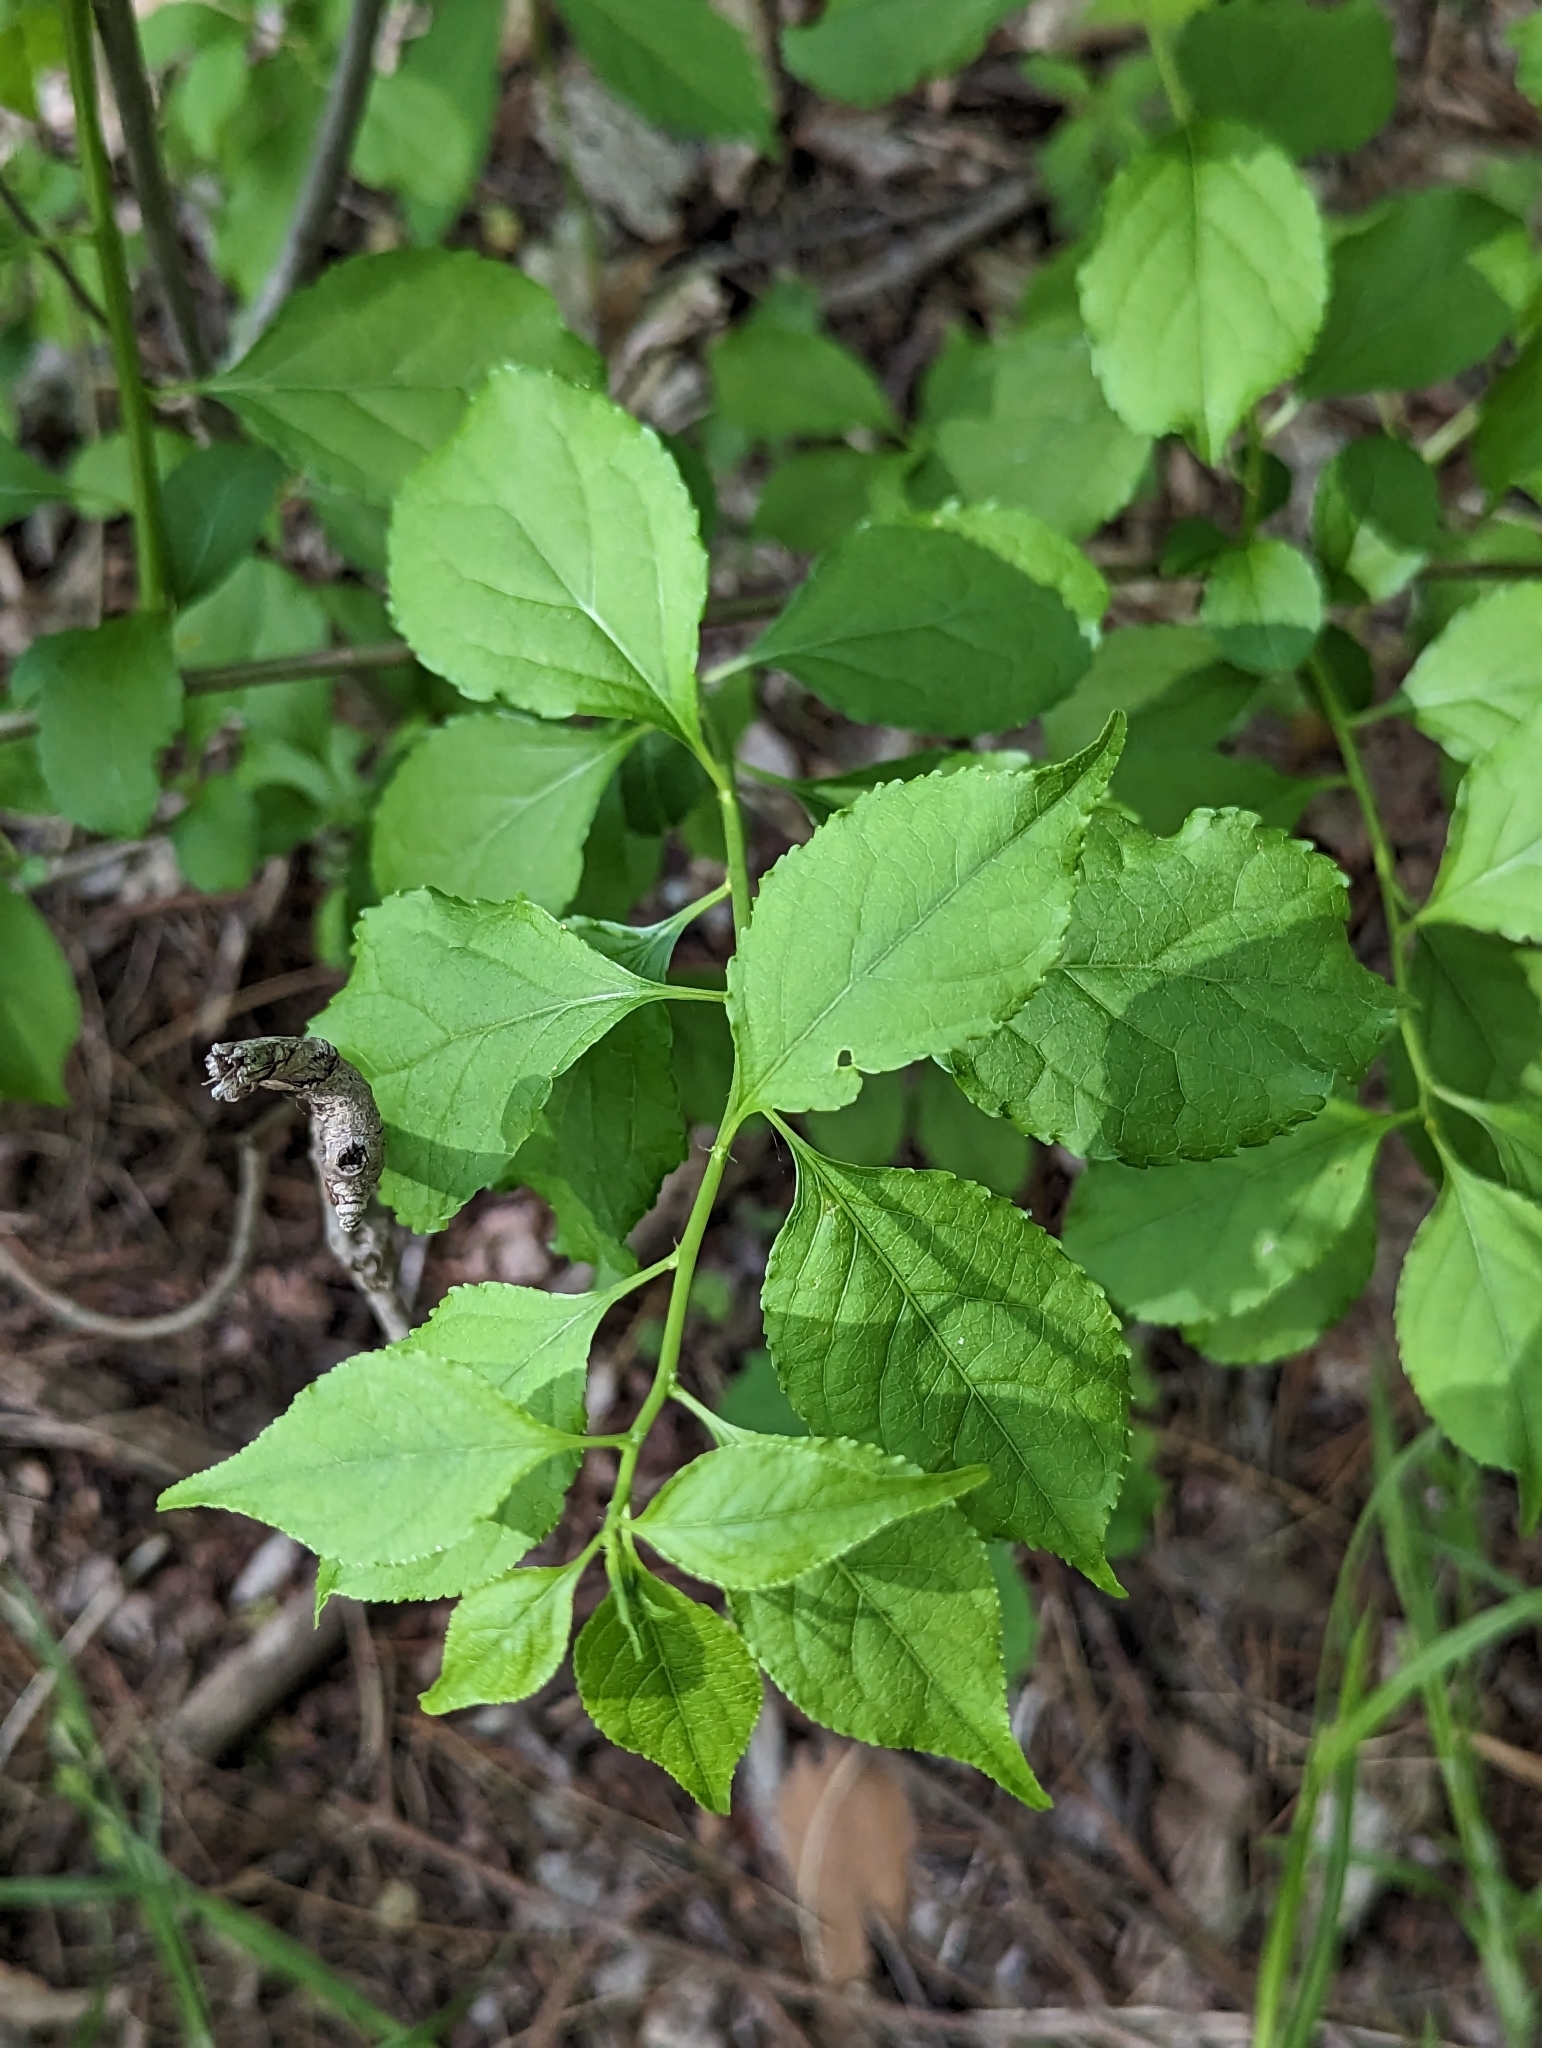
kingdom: Plantae
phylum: Tracheophyta
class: Magnoliopsida
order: Celastrales
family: Celastraceae
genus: Celastrus
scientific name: Celastrus orbiculatus
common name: Oriental bittersweet
